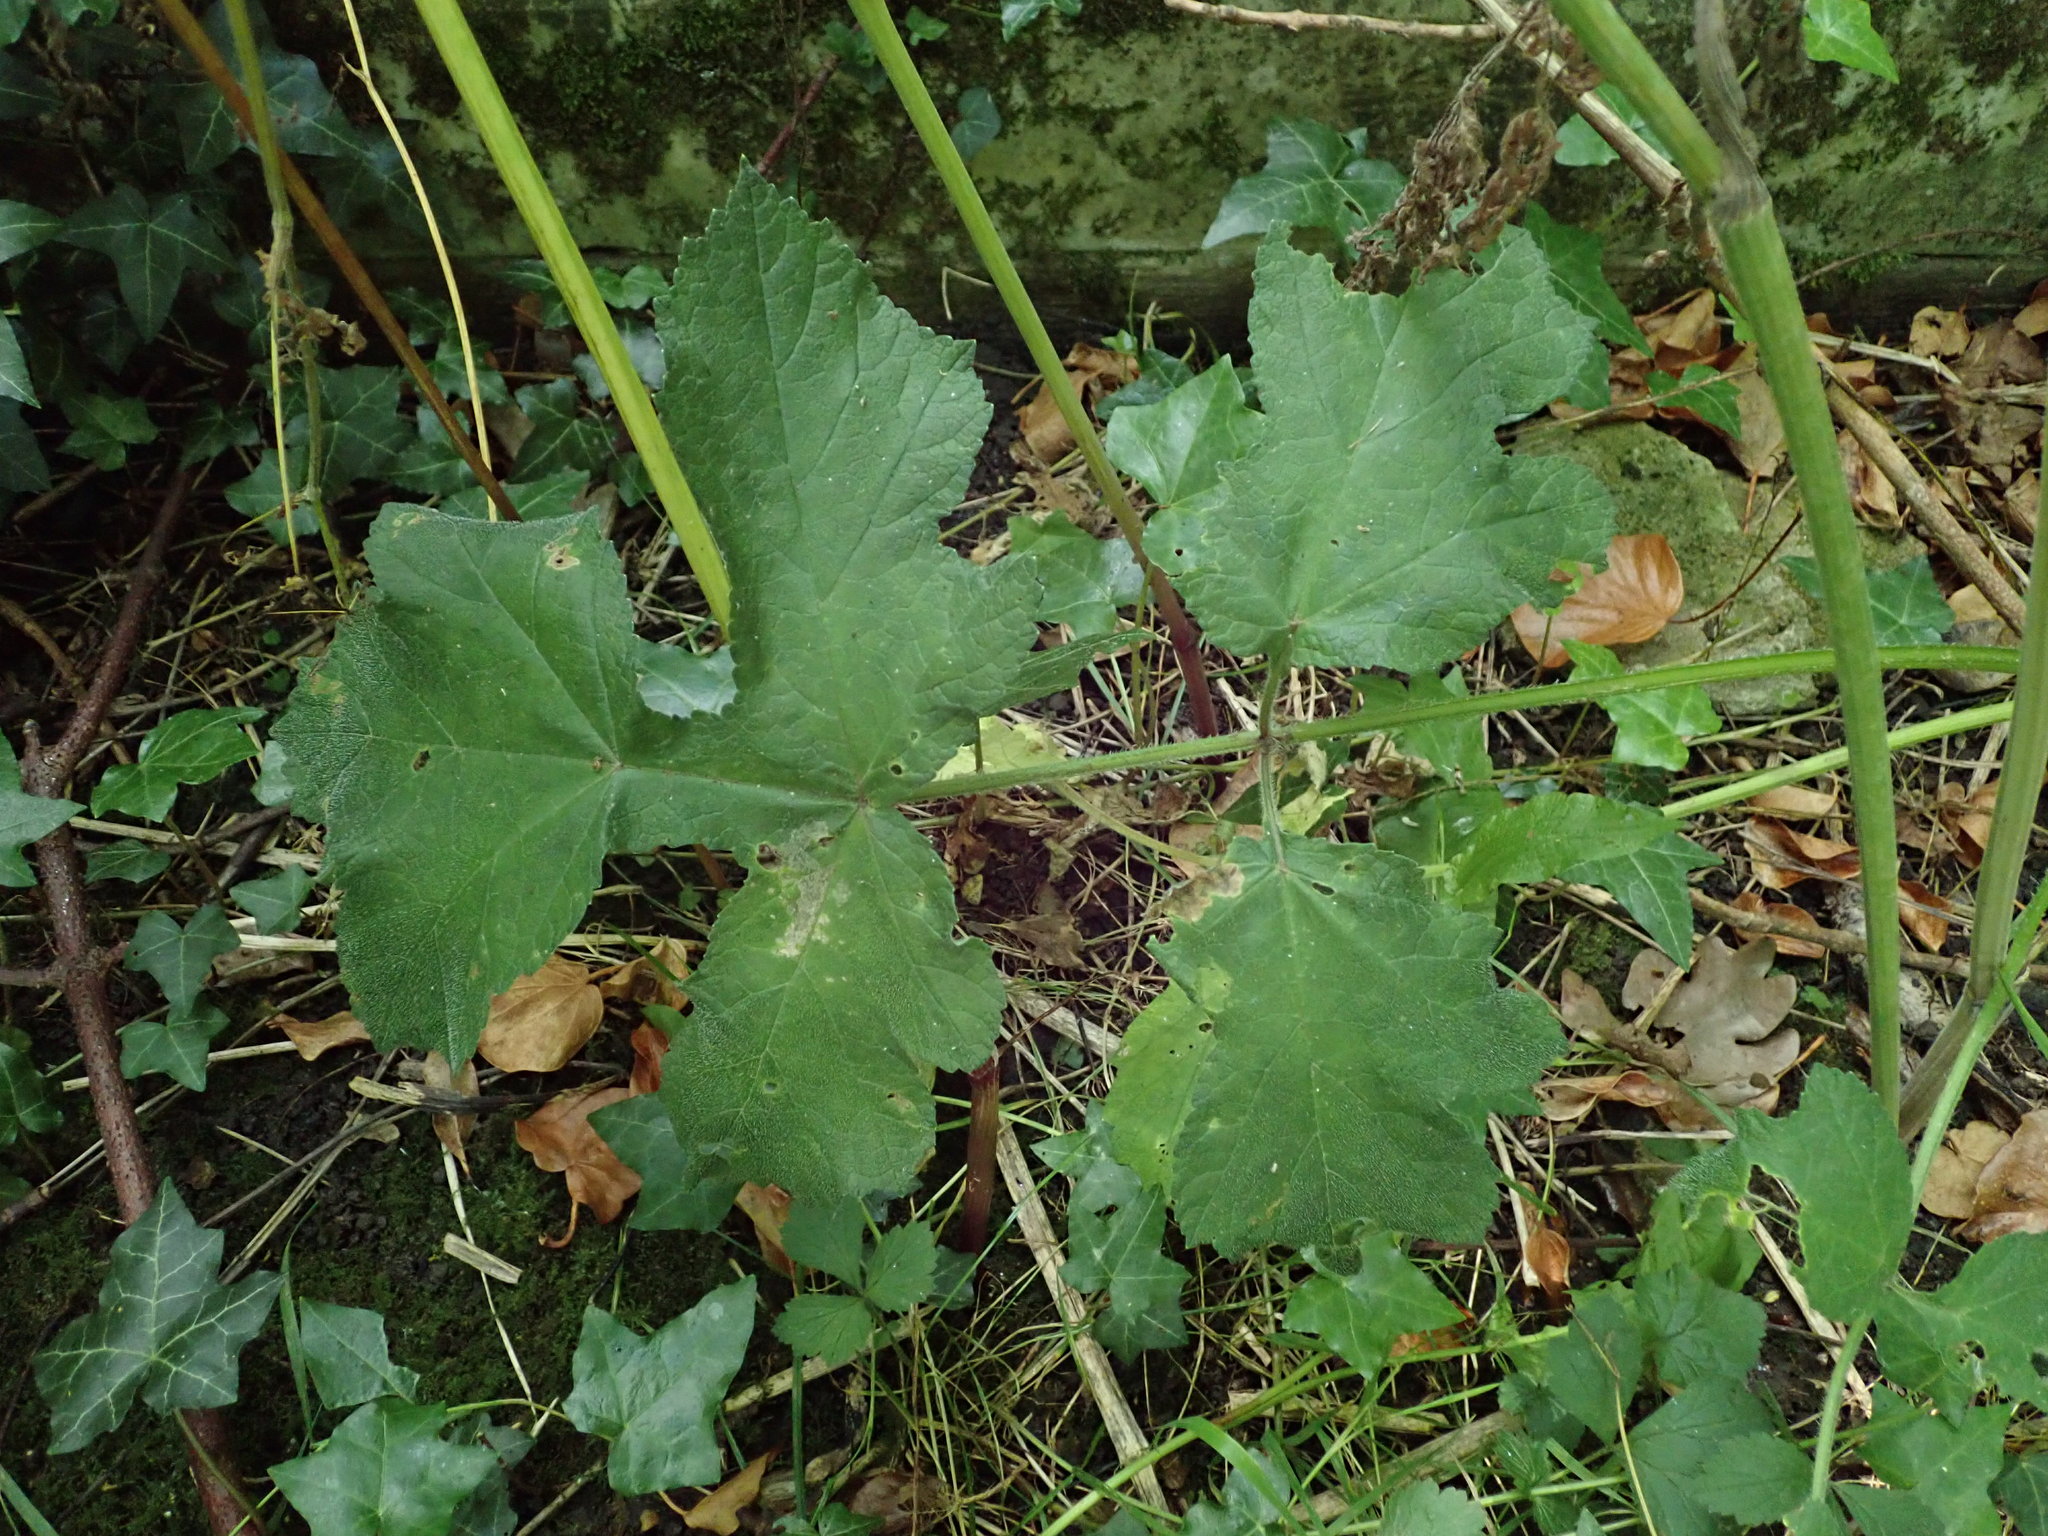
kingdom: Plantae
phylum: Tracheophyta
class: Magnoliopsida
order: Apiales
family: Apiaceae
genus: Heracleum
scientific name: Heracleum sphondylium
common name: Hogweed
